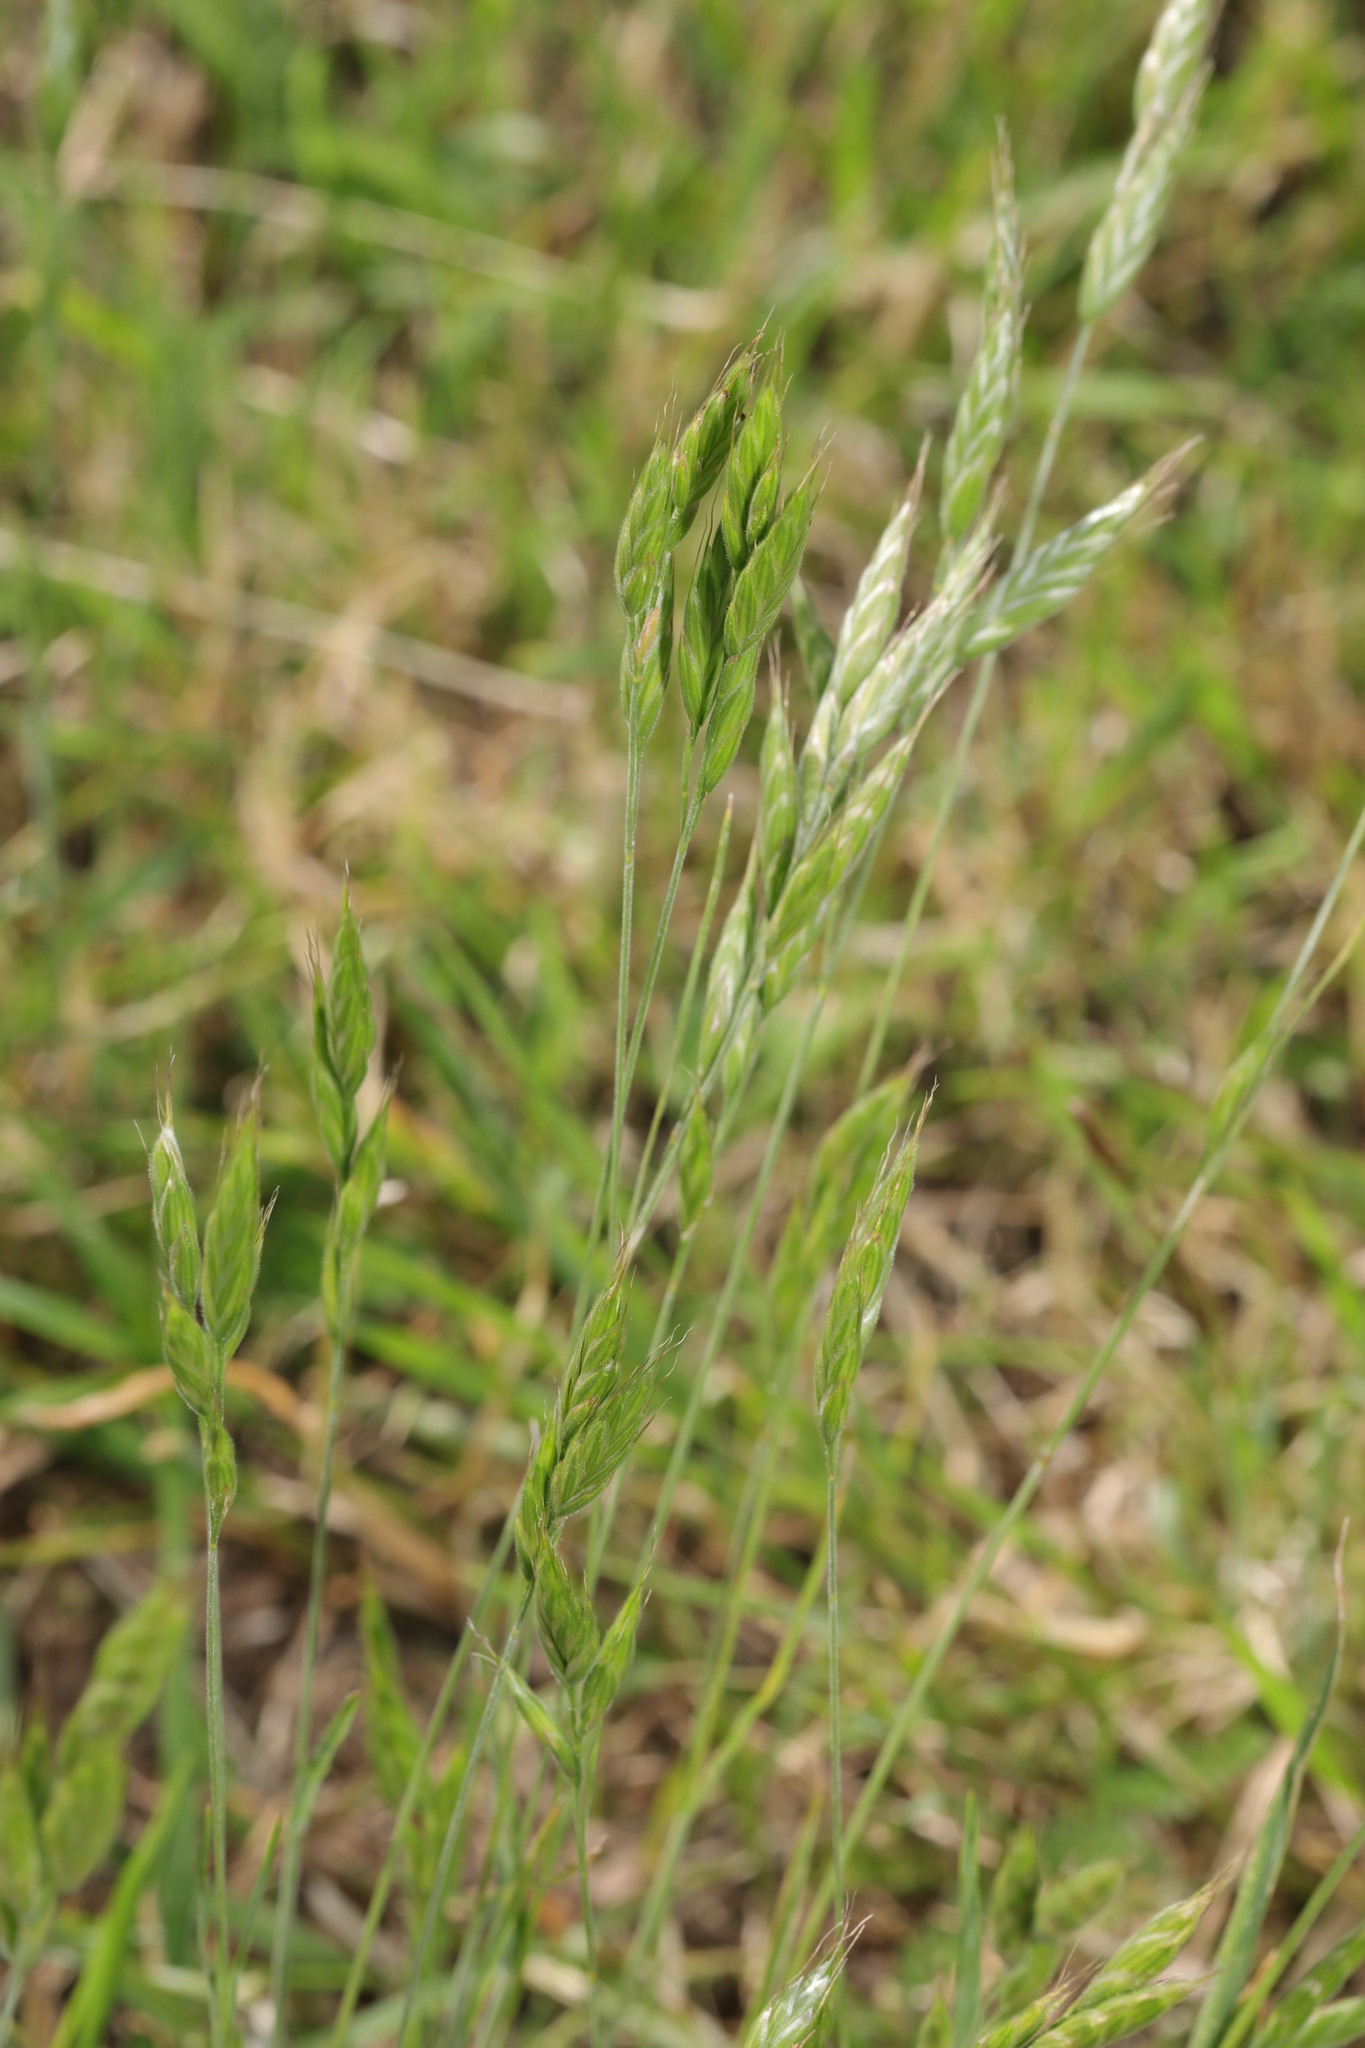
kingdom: Plantae
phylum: Tracheophyta
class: Liliopsida
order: Poales
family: Poaceae
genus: Bromus
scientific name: Bromus hordeaceus
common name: Soft brome
